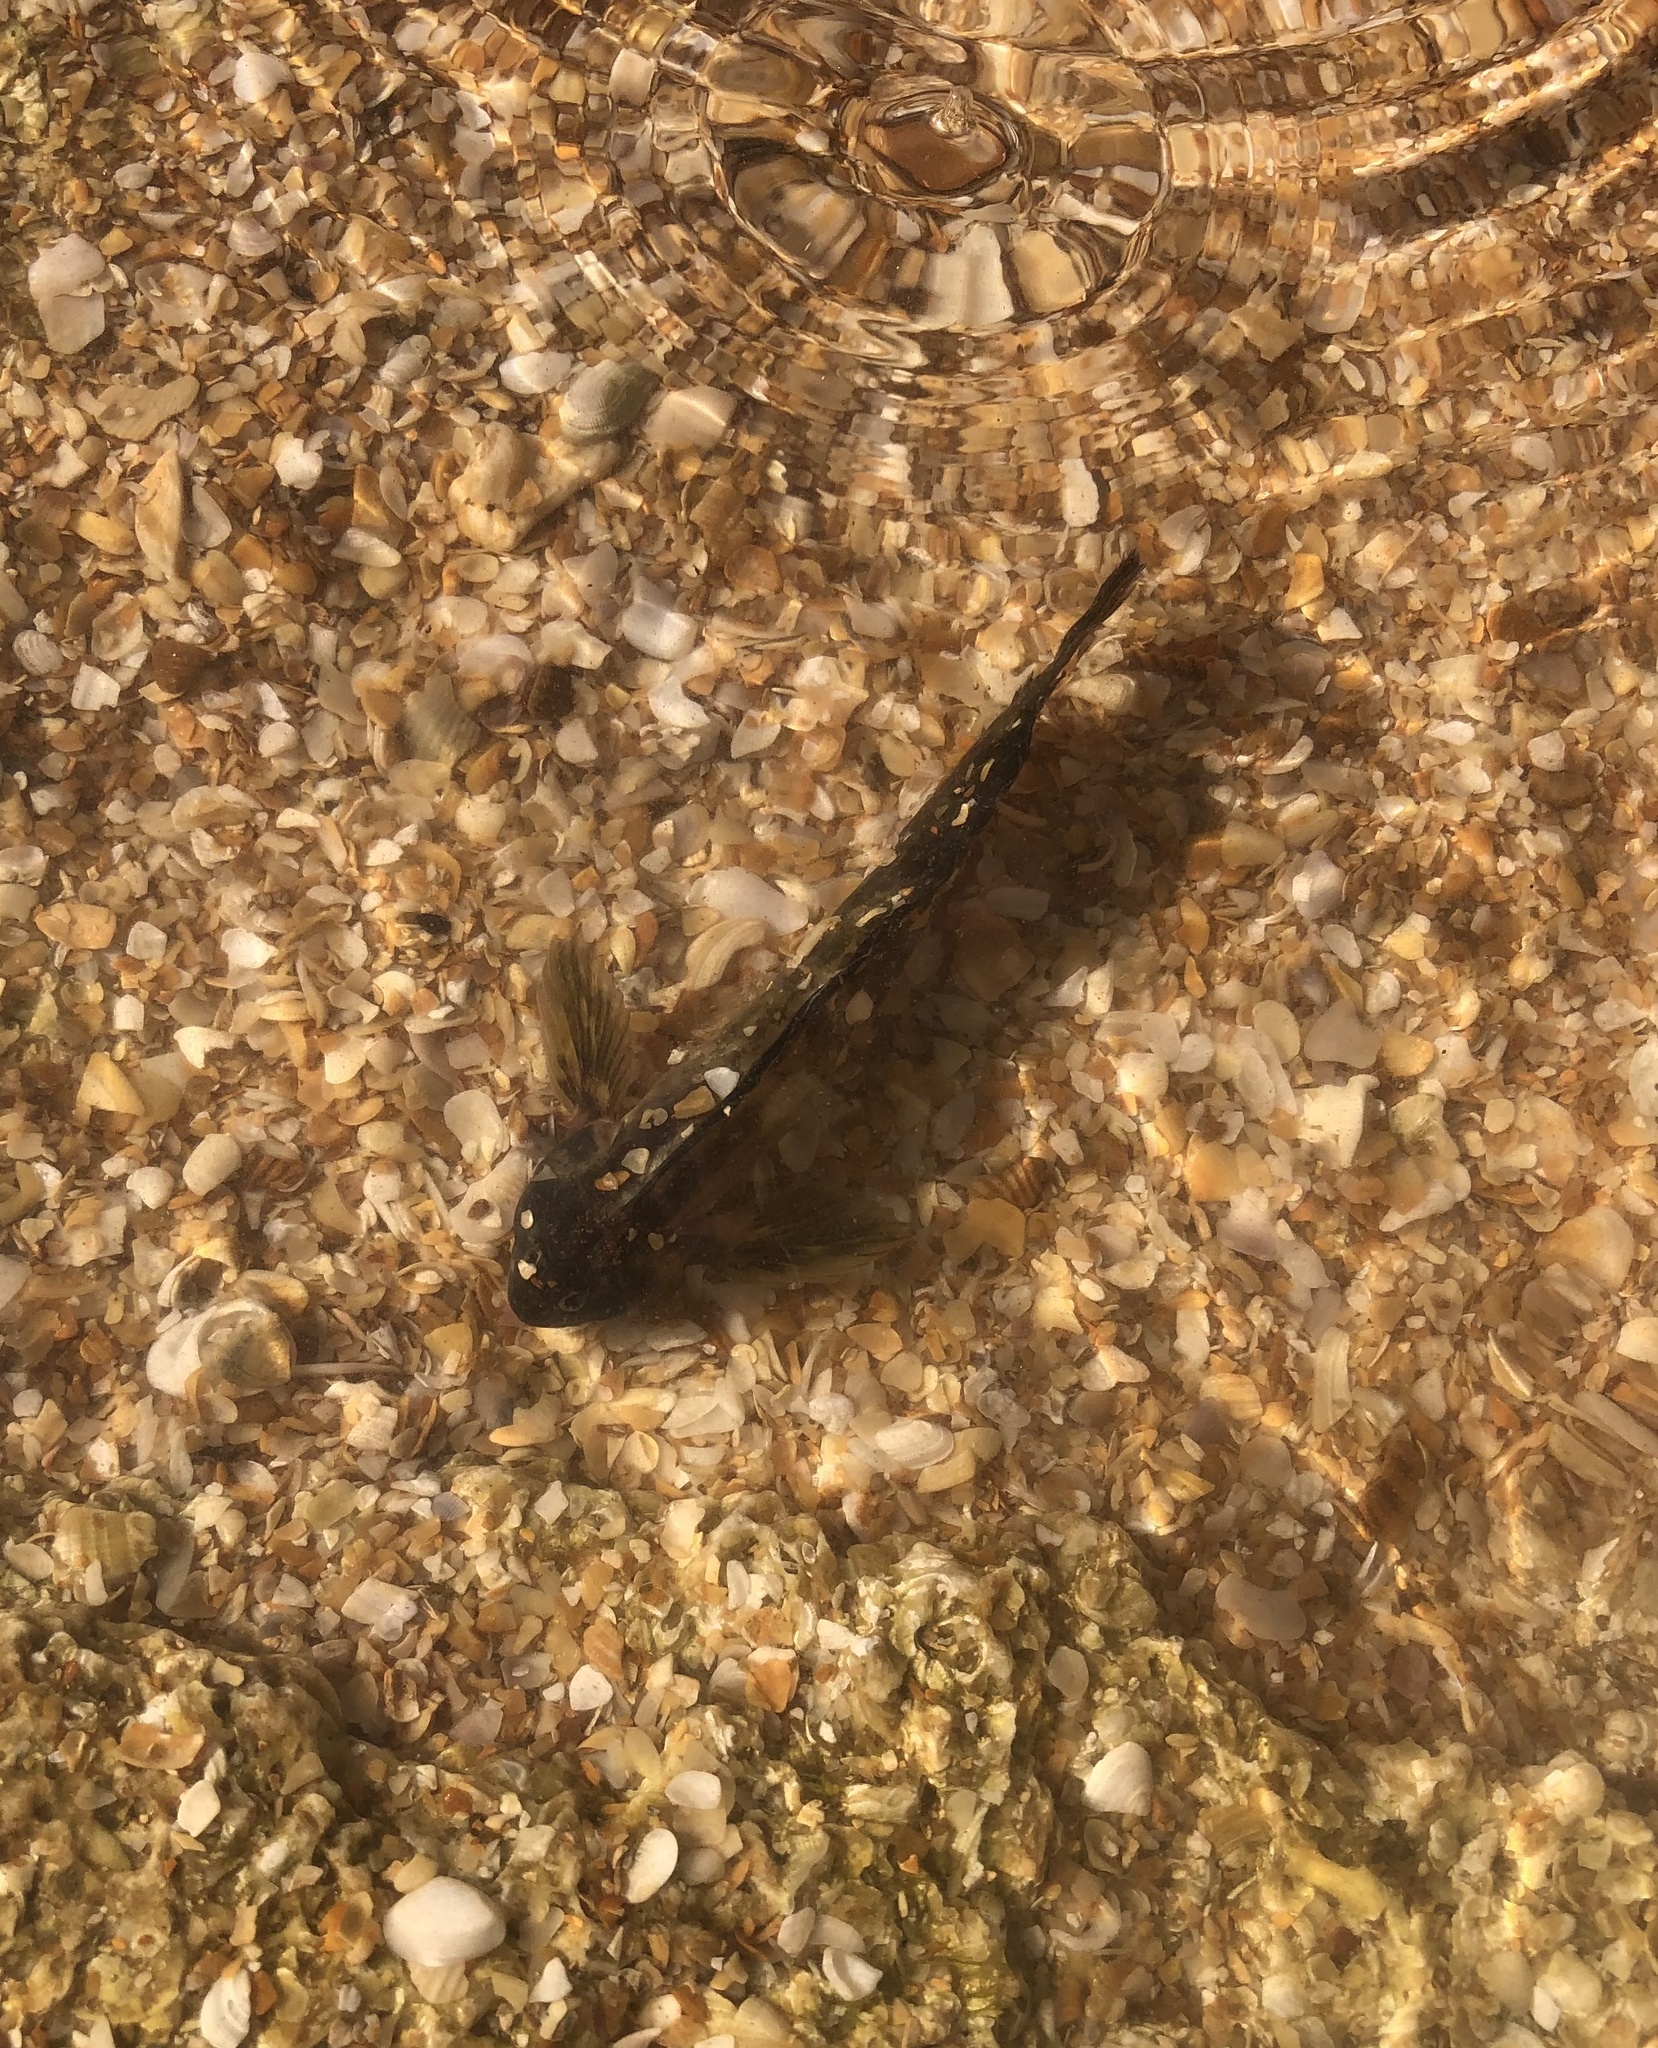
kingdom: Animalia
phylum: Chordata
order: Perciformes
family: Blenniidae
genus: Scartella
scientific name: Scartella cristata
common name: Molly miller
